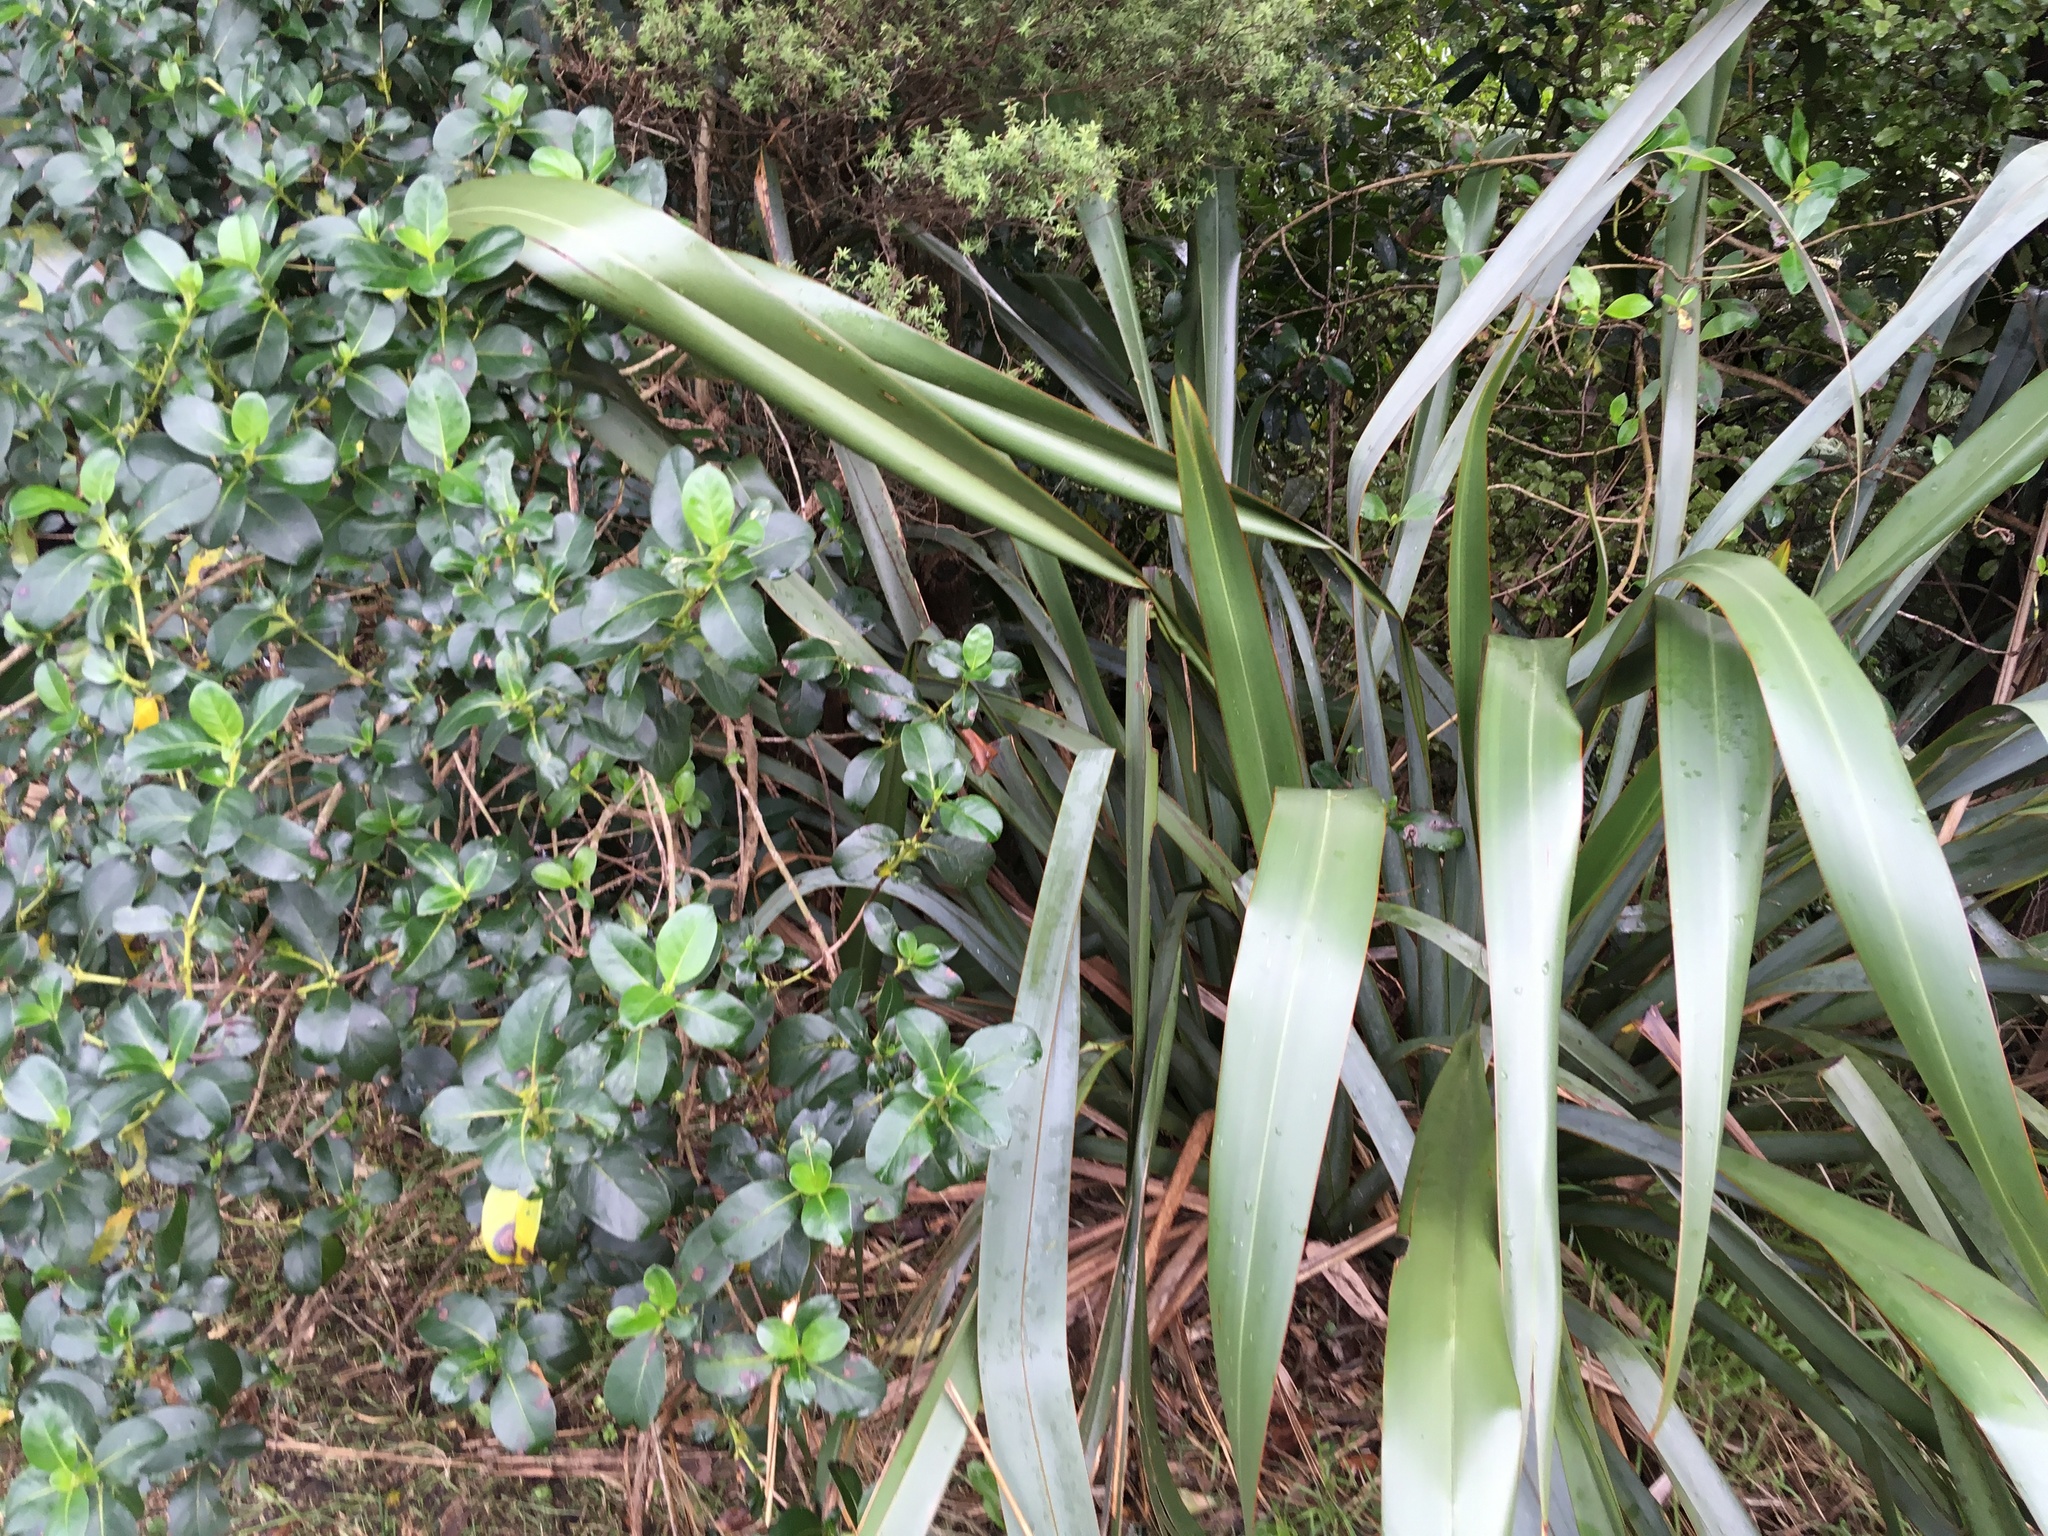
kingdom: Plantae
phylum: Tracheophyta
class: Magnoliopsida
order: Gentianales
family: Rubiaceae
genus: Coprosma
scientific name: Coprosma lucida
